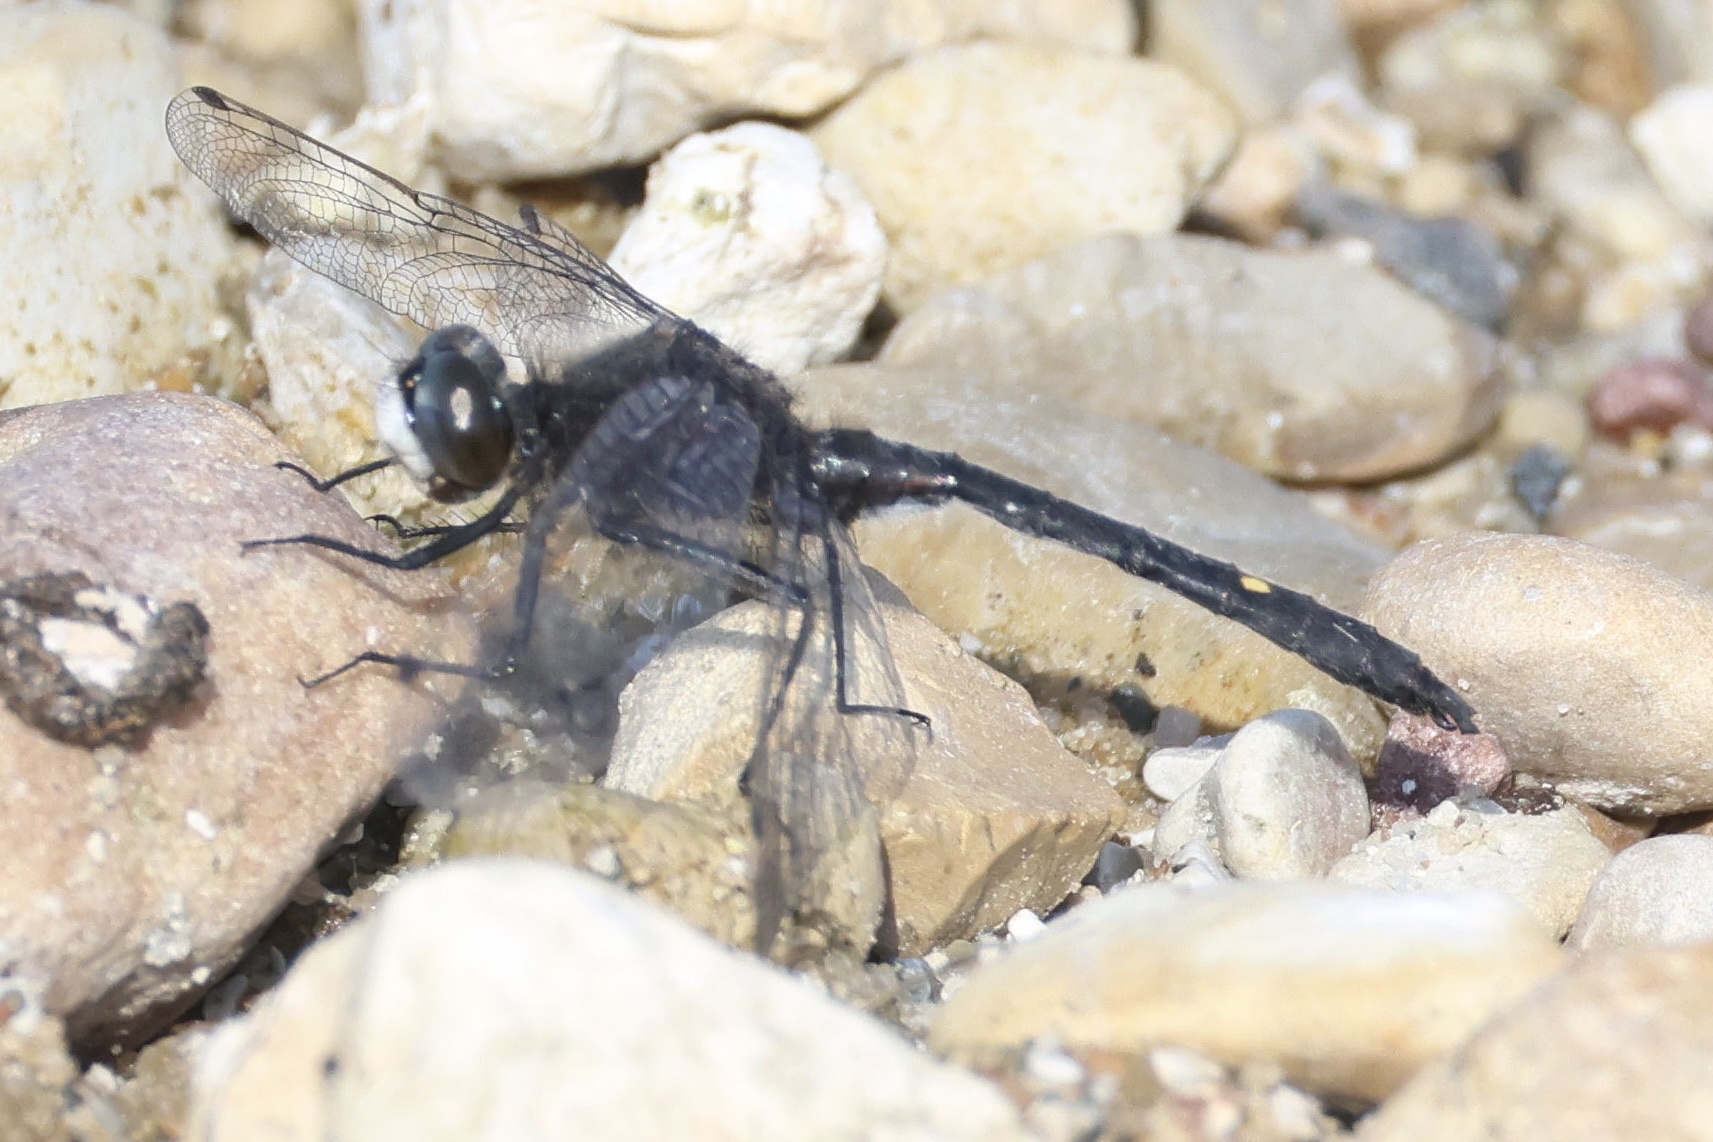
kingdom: Animalia
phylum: Arthropoda
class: Insecta
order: Odonata
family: Libellulidae
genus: Leucorrhinia
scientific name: Leucorrhinia intacta
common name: Dot-tailed whiteface
